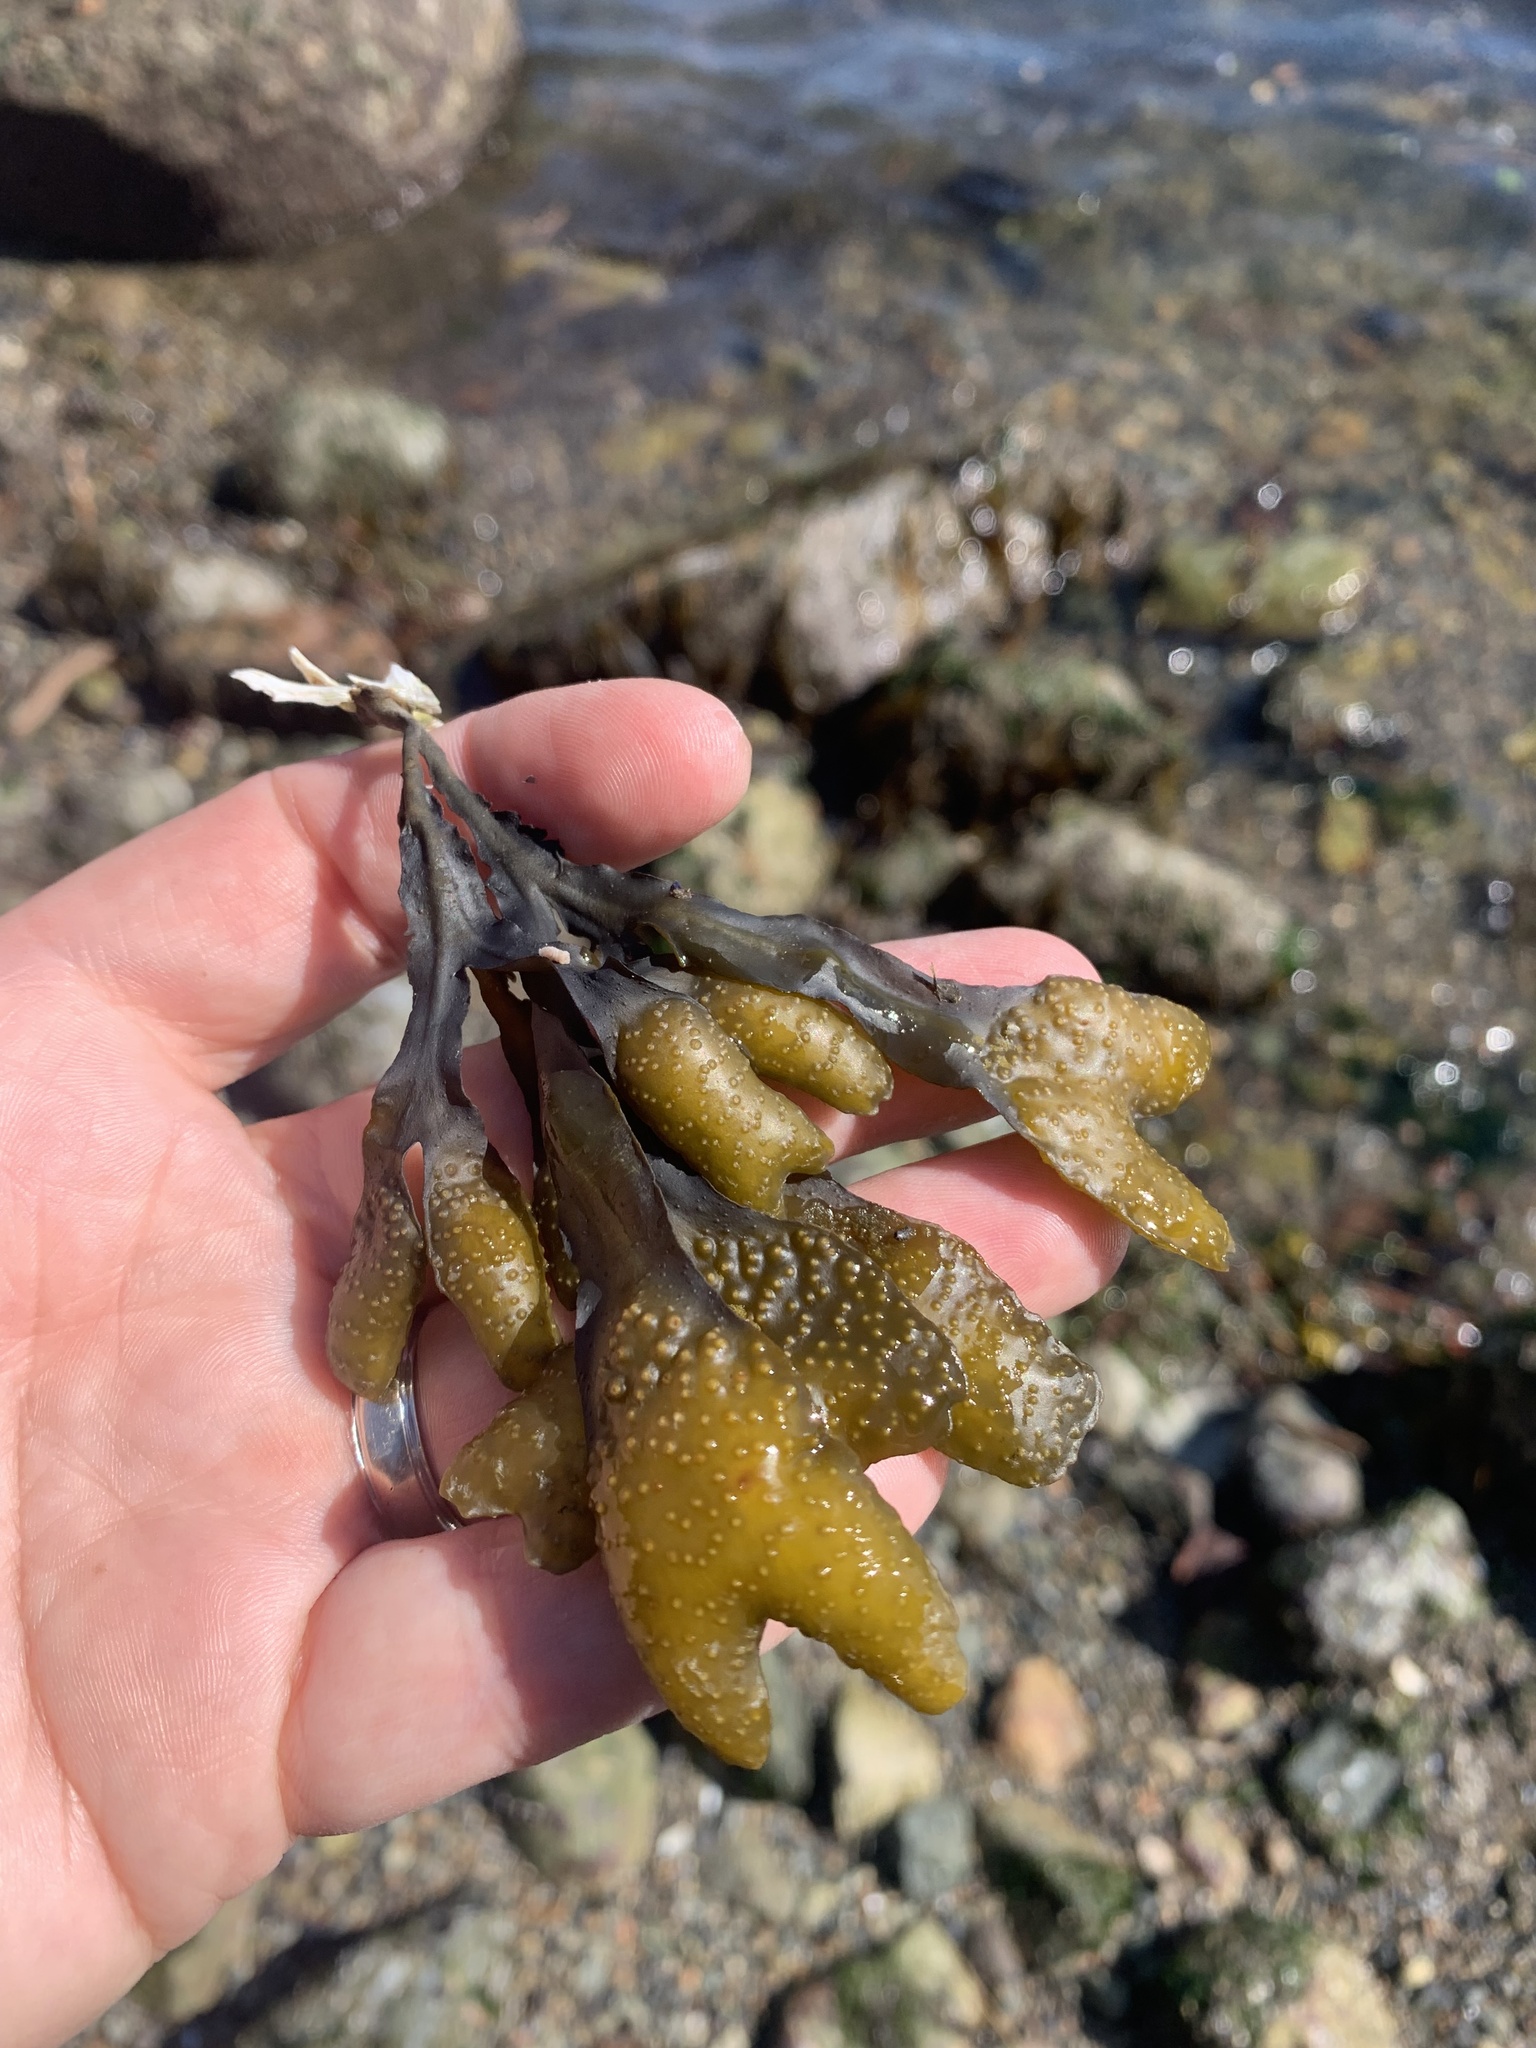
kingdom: Chromista
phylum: Ochrophyta
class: Phaeophyceae
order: Fucales
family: Fucaceae
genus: Fucus
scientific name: Fucus distichus
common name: Rockweed
